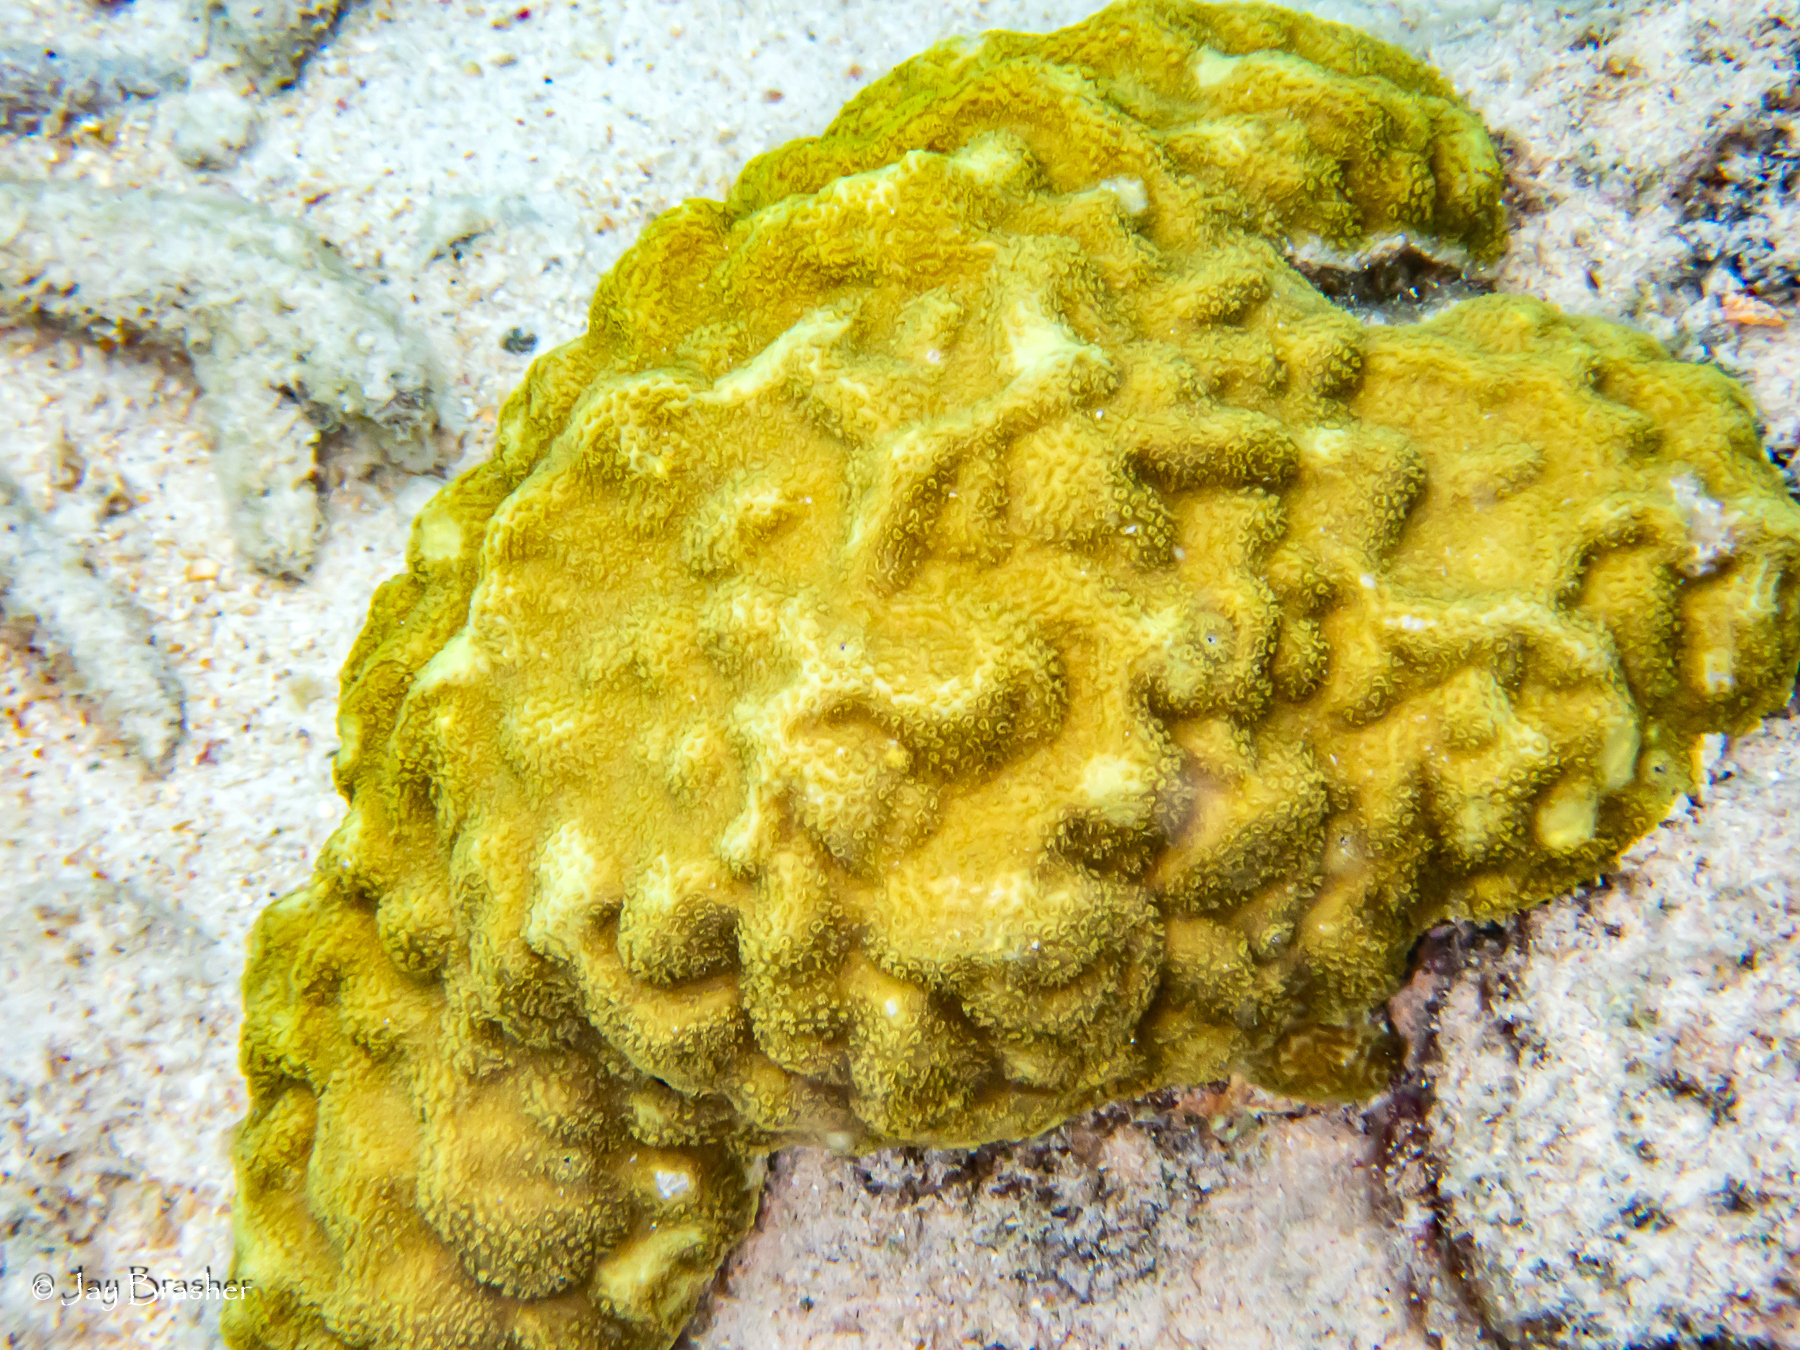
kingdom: Animalia
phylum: Cnidaria
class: Anthozoa
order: Scleractinia
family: Poritidae
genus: Porites
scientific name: Porites astreoides
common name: Mustard hill coral
